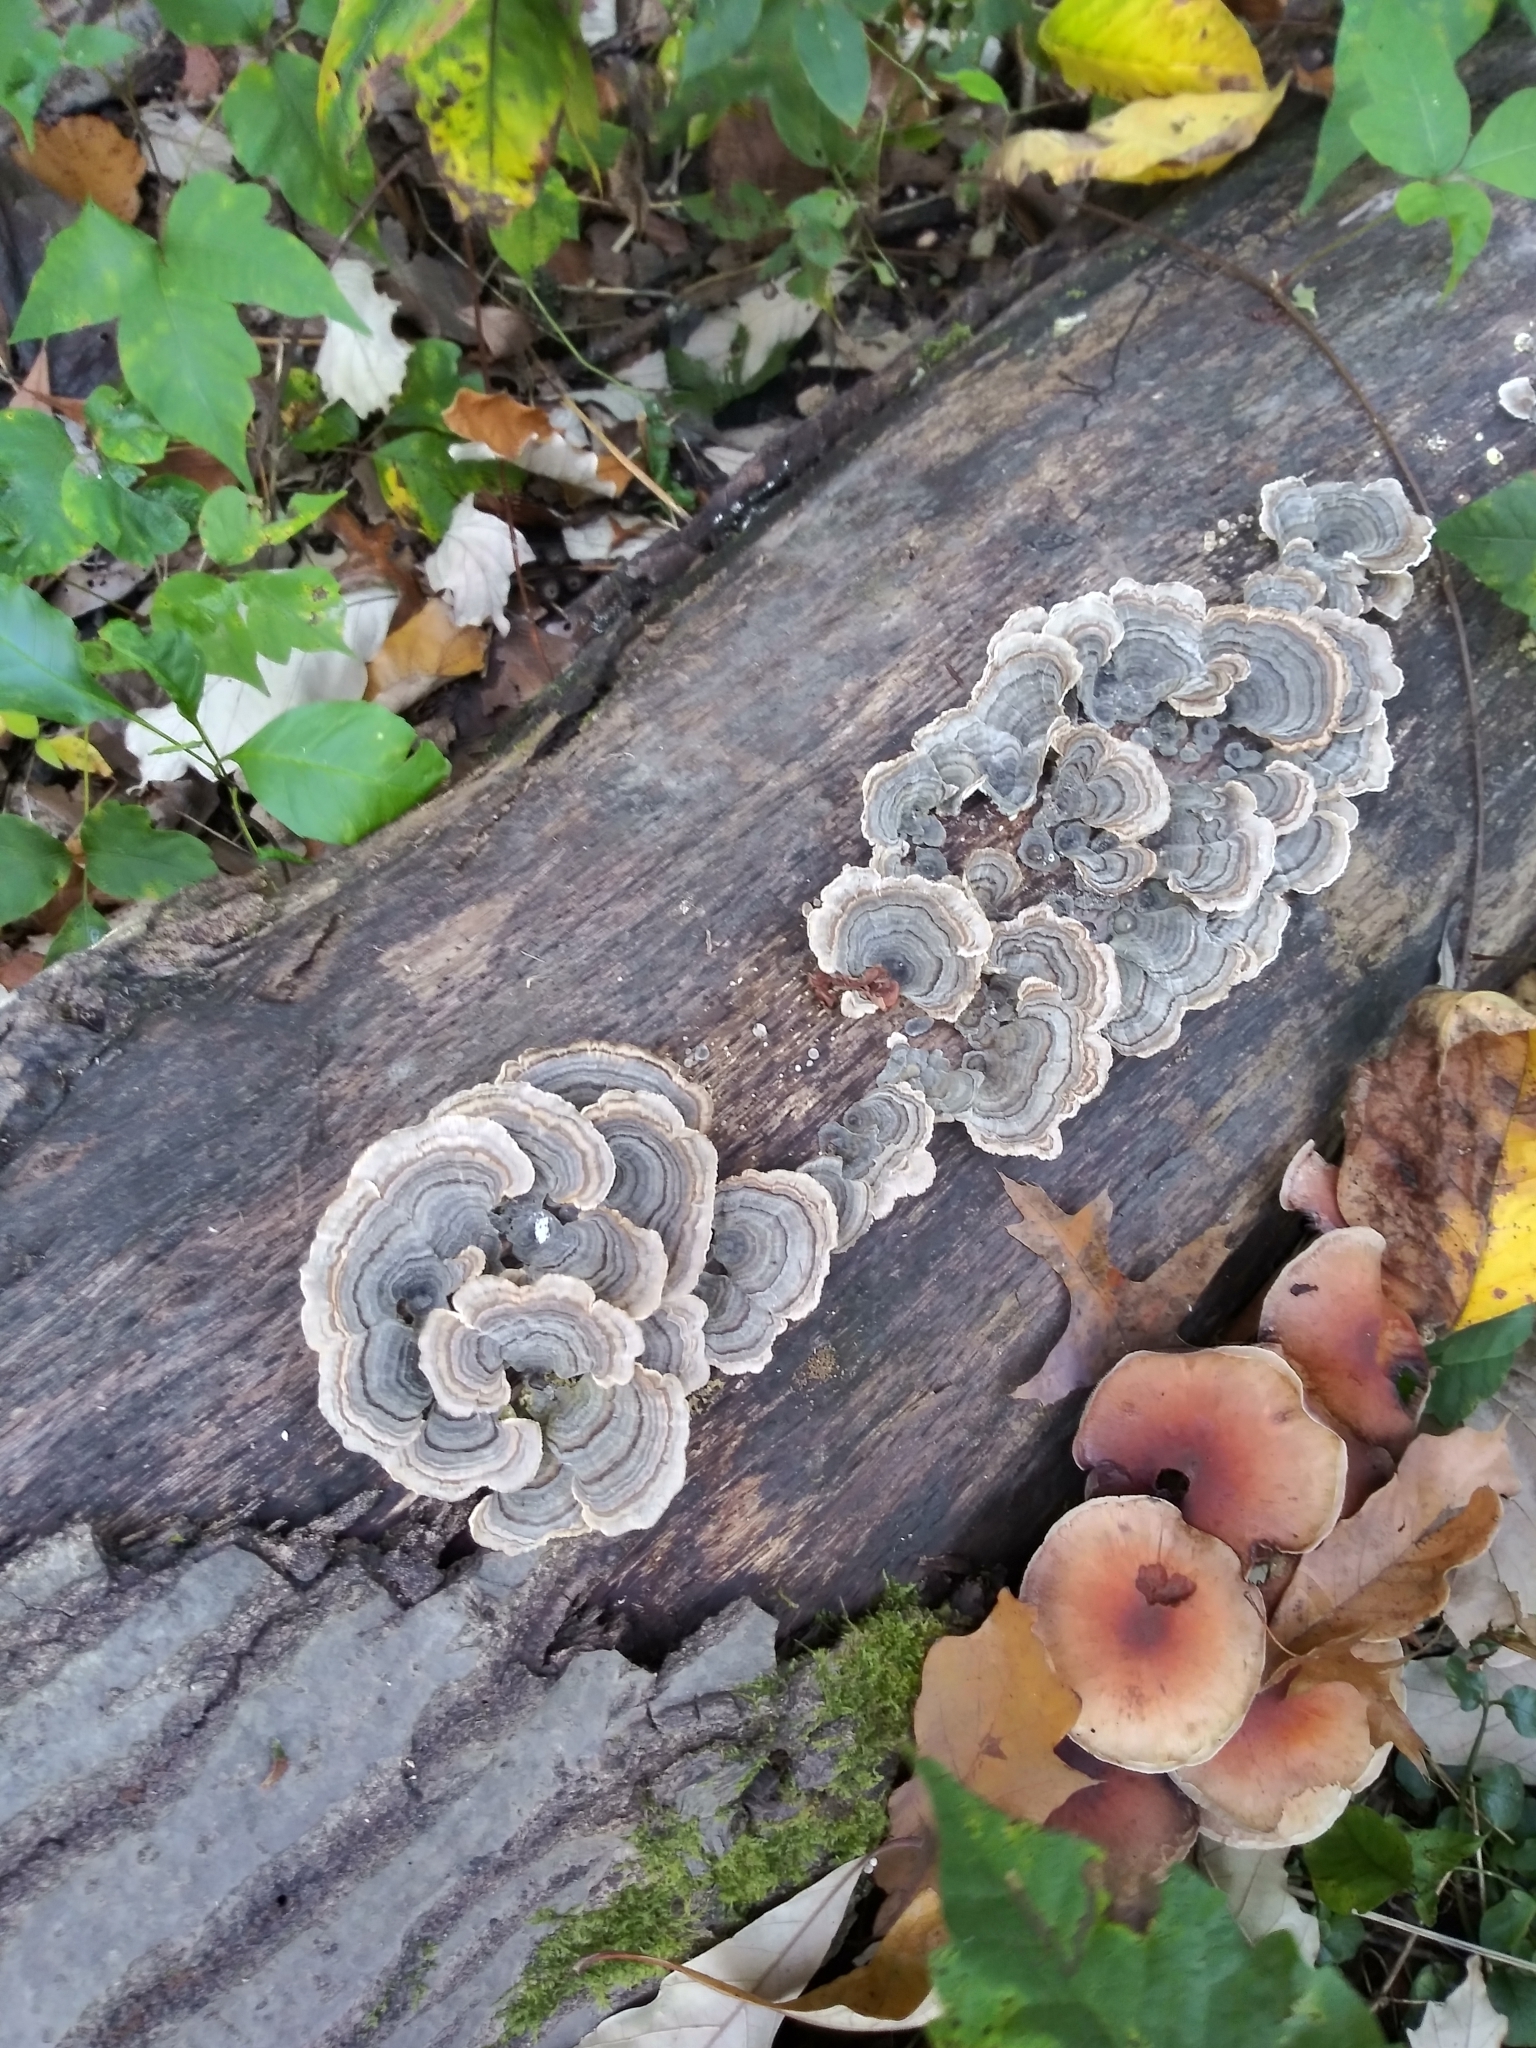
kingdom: Fungi
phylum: Basidiomycota
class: Agaricomycetes
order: Polyporales
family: Polyporaceae
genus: Trametes
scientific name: Trametes versicolor
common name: Turkeytail
